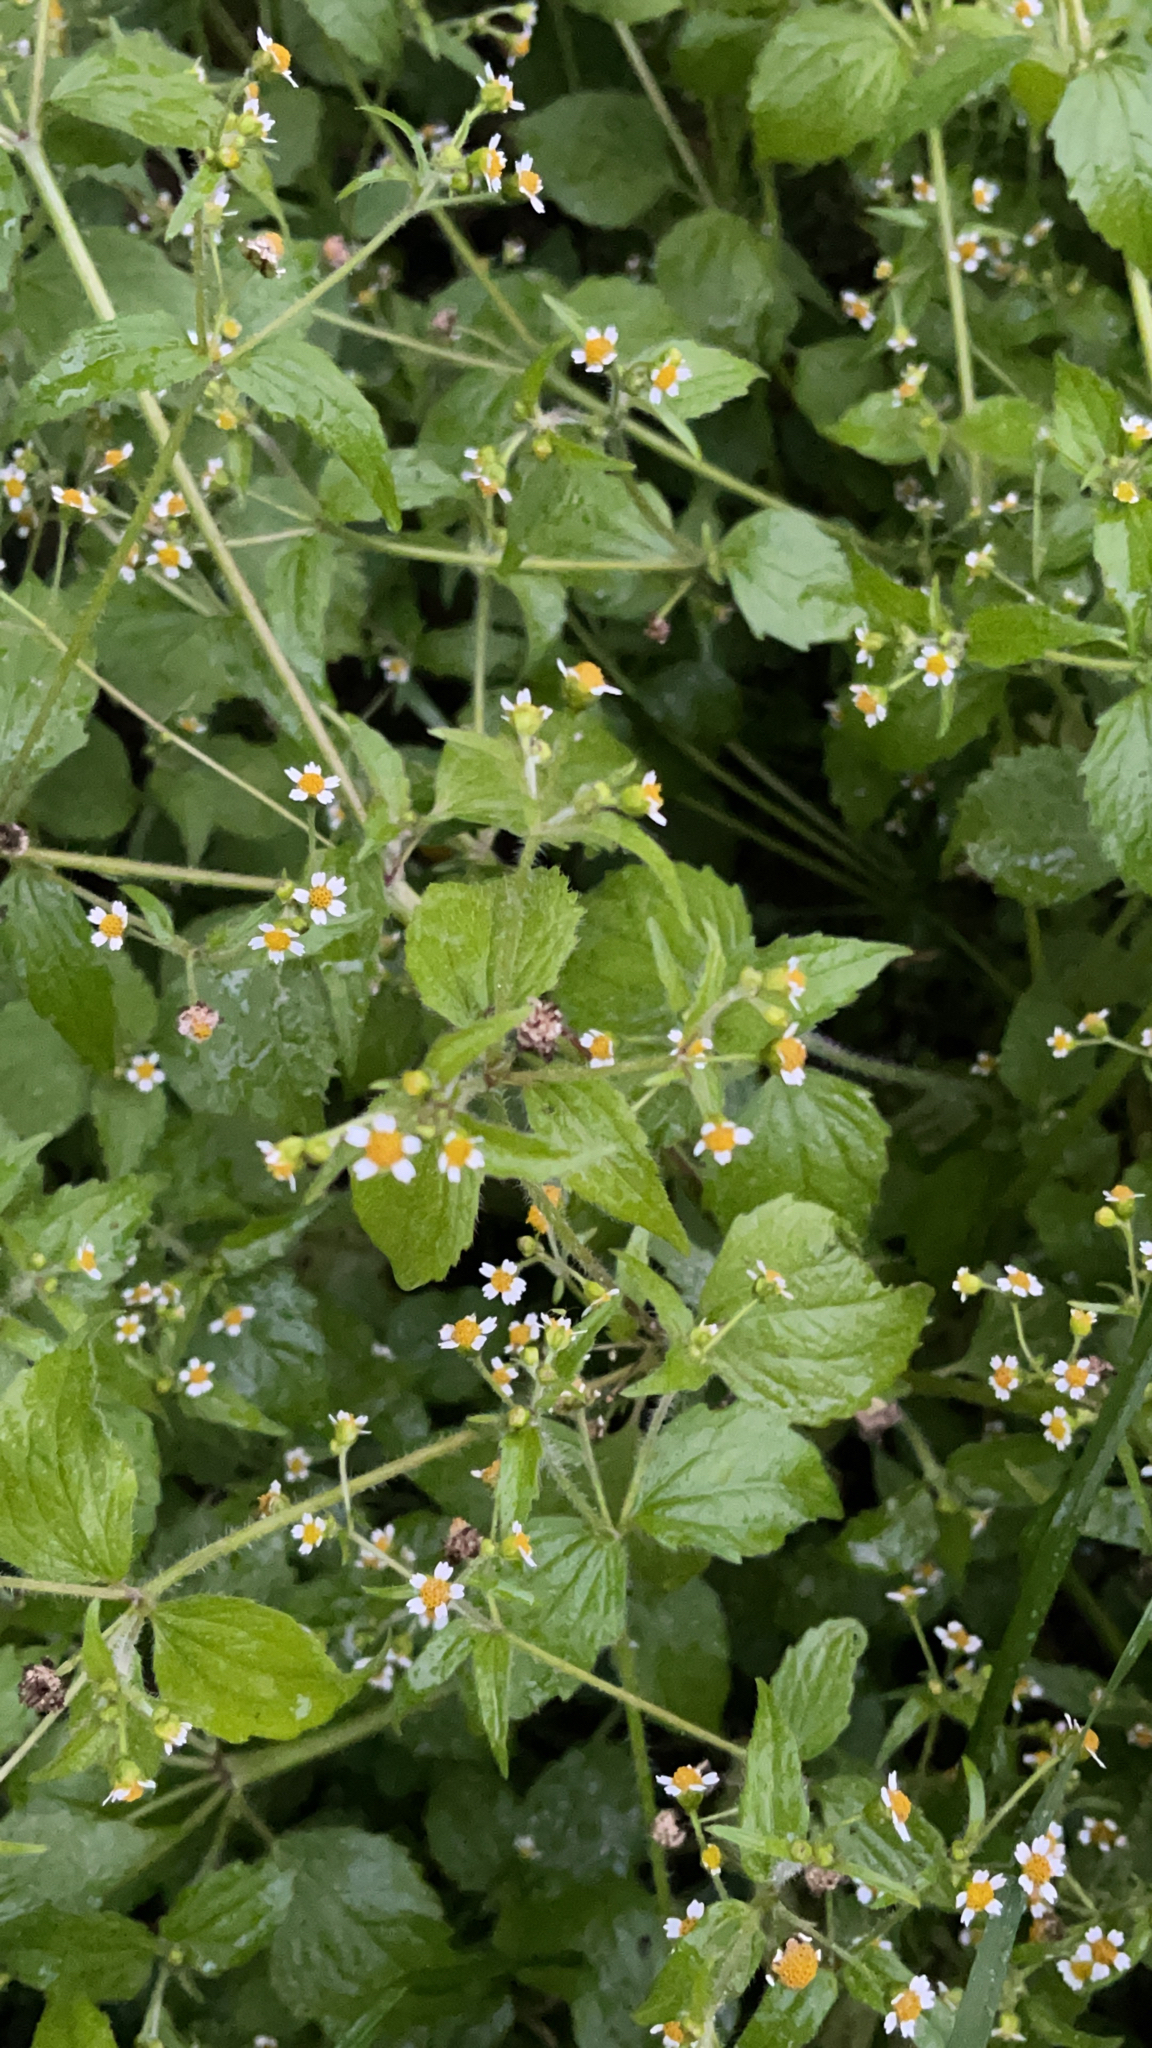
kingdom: Plantae
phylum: Tracheophyta
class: Magnoliopsida
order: Asterales
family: Asteraceae
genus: Galinsoga
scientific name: Galinsoga quadriradiata
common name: Shaggy soldier
